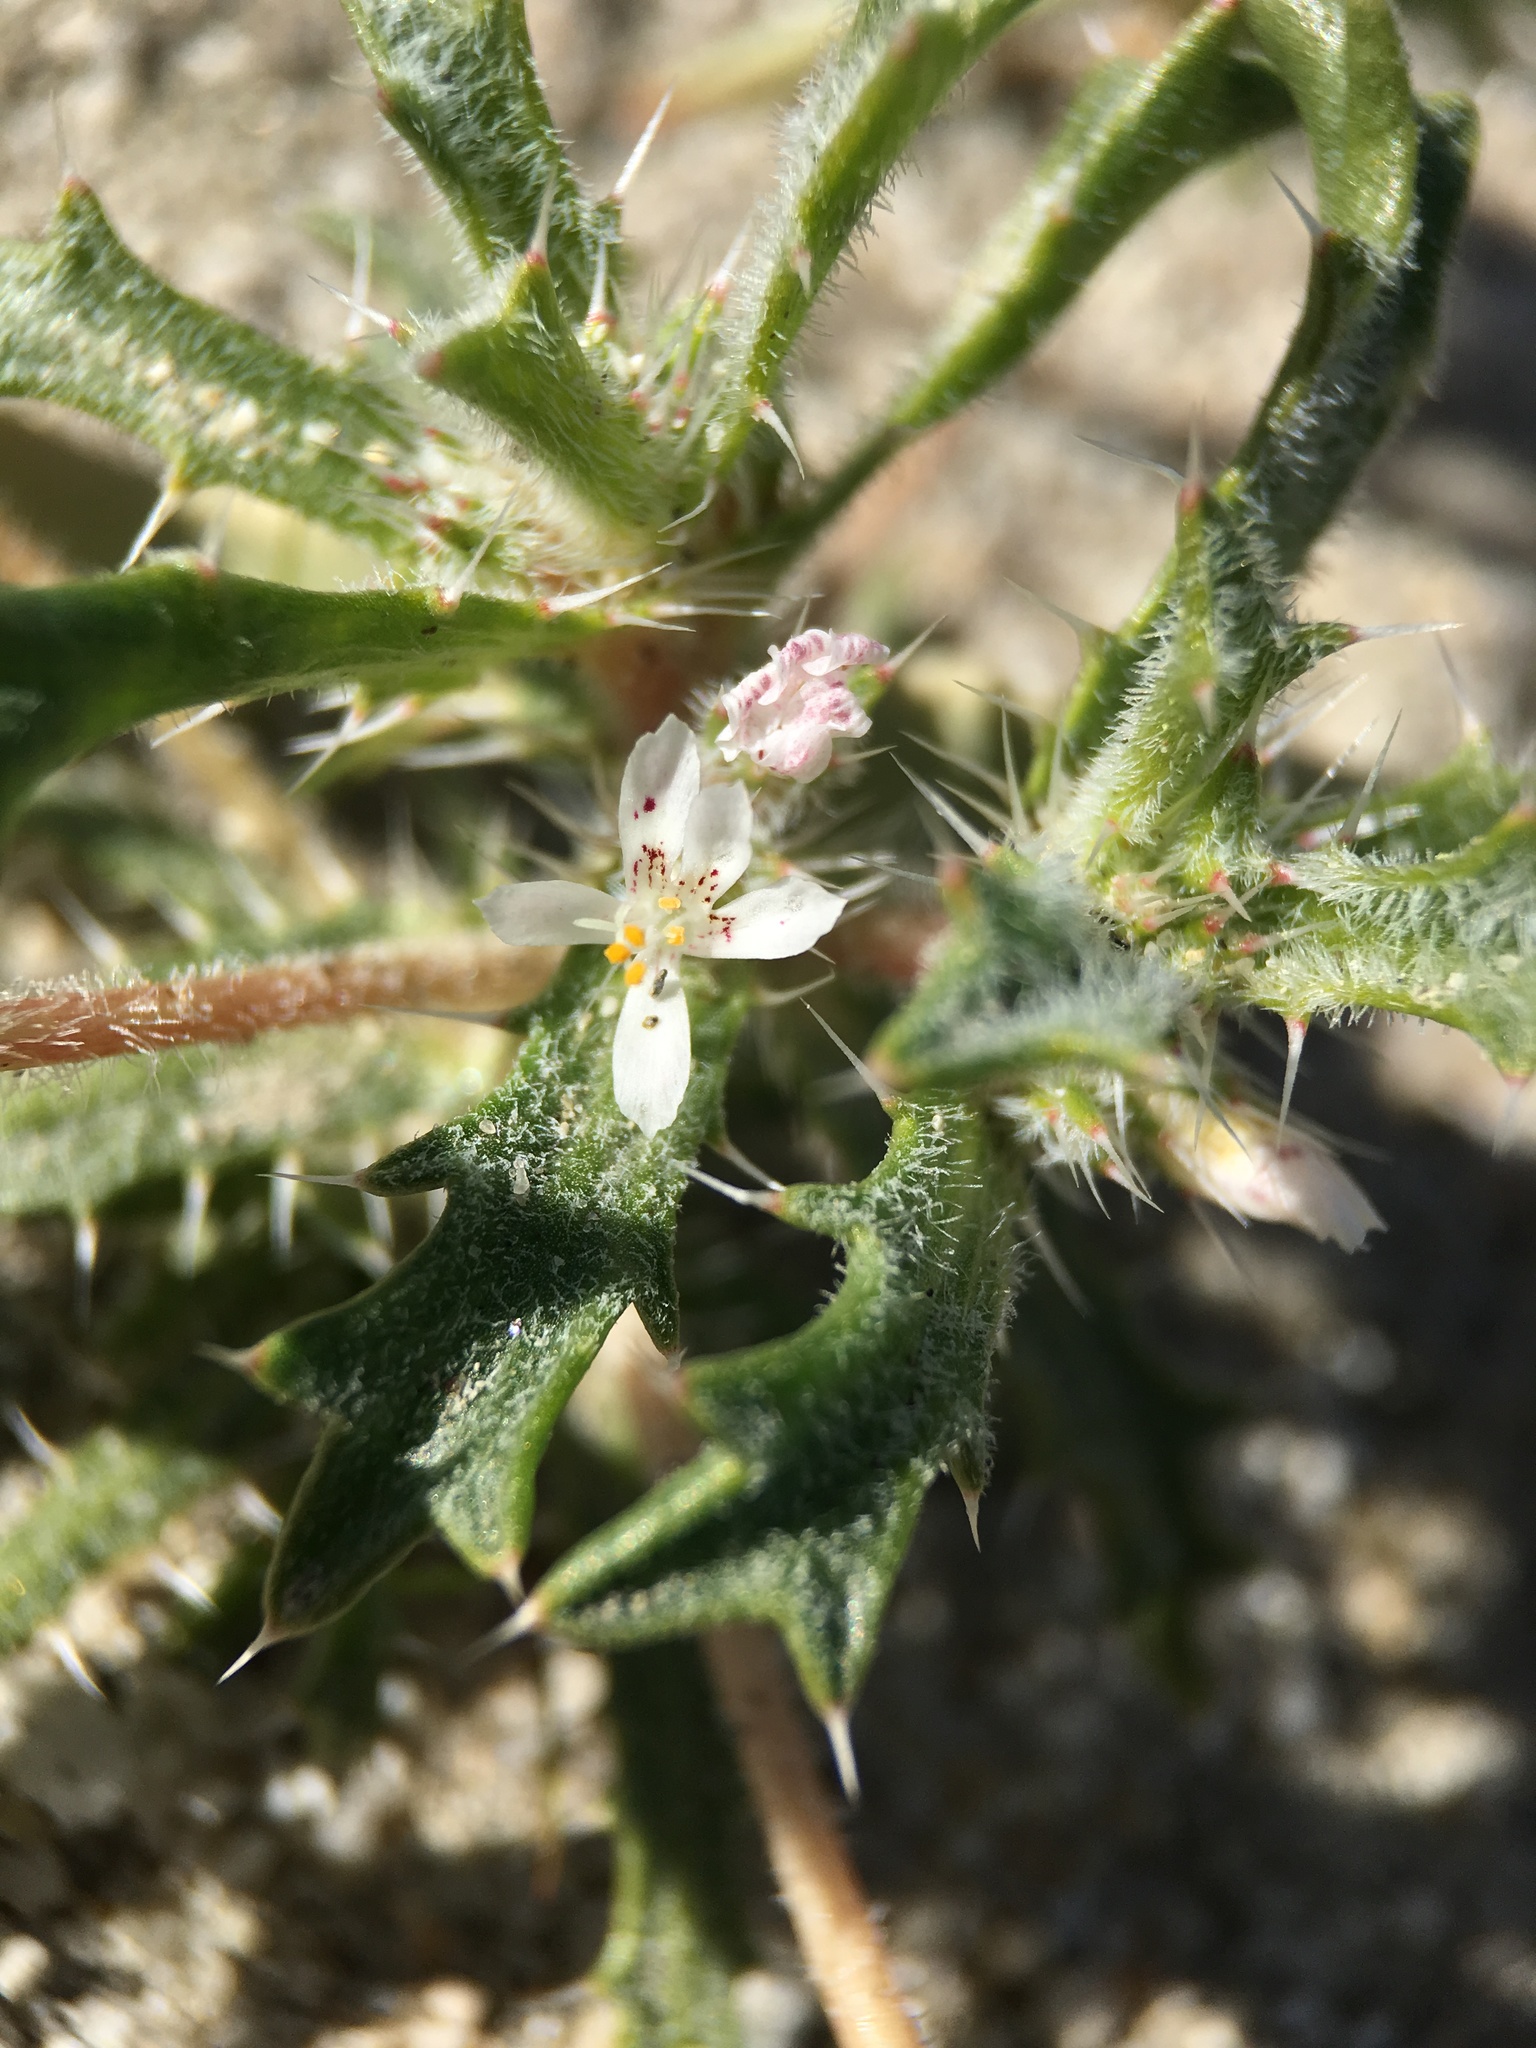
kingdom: Plantae
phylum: Tracheophyta
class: Magnoliopsida
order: Ericales
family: Polemoniaceae
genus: Loeseliastrum
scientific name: Loeseliastrum schottii
